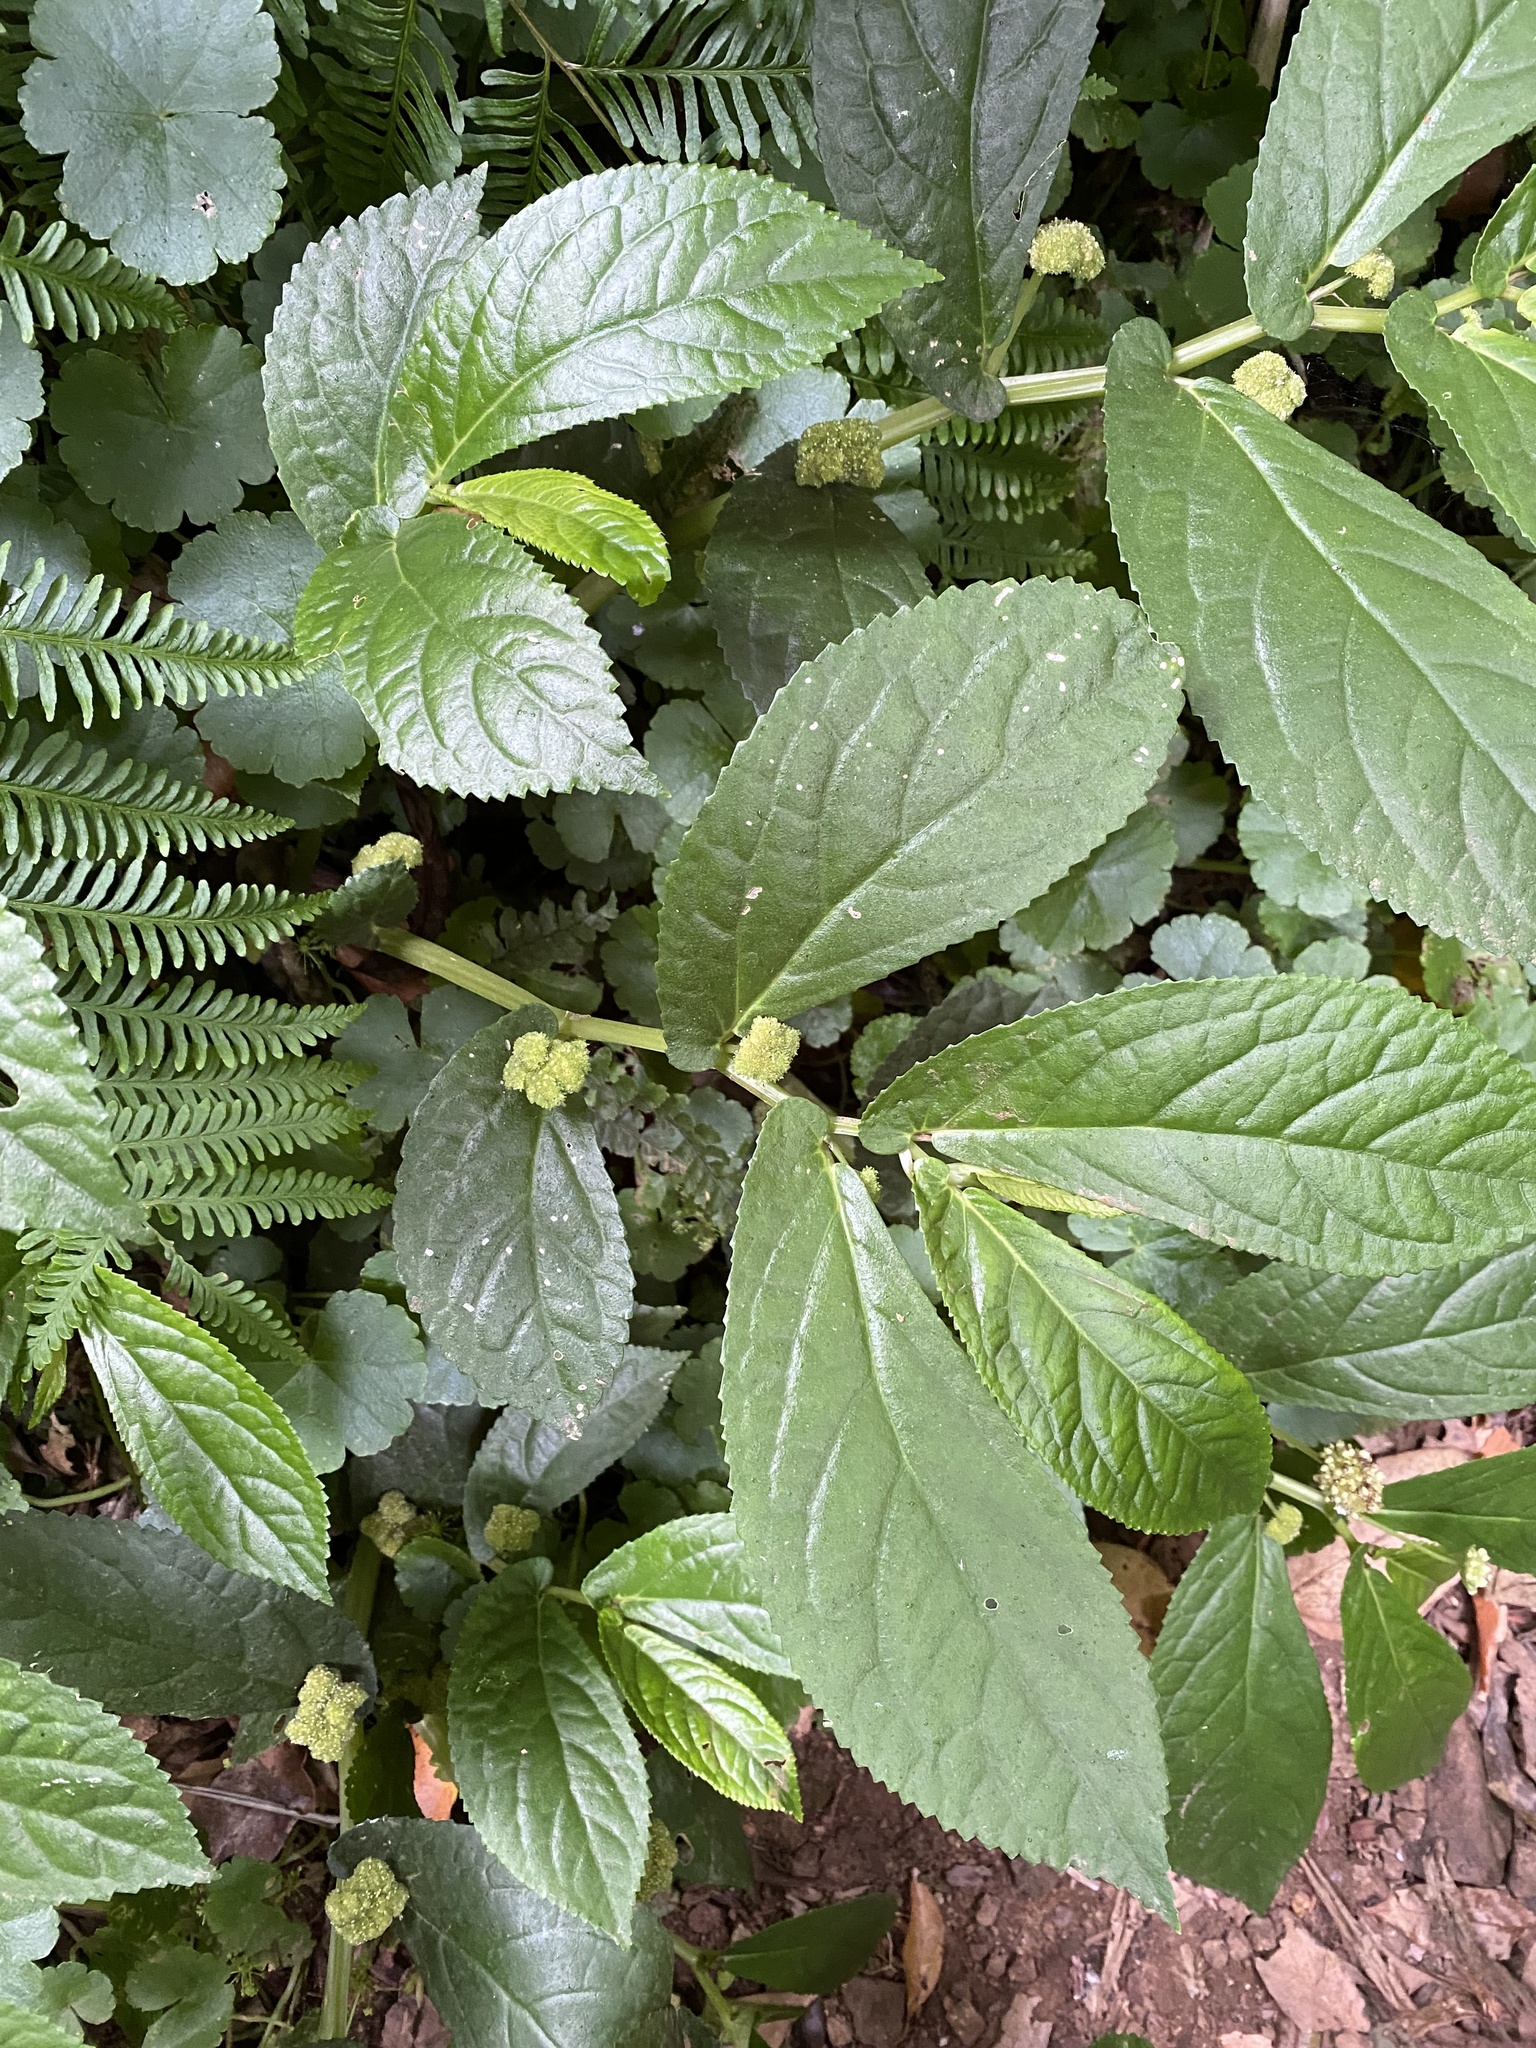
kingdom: Plantae
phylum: Tracheophyta
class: Magnoliopsida
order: Rosales
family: Urticaceae
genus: Elatostema
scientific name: Elatostema reticulatum
